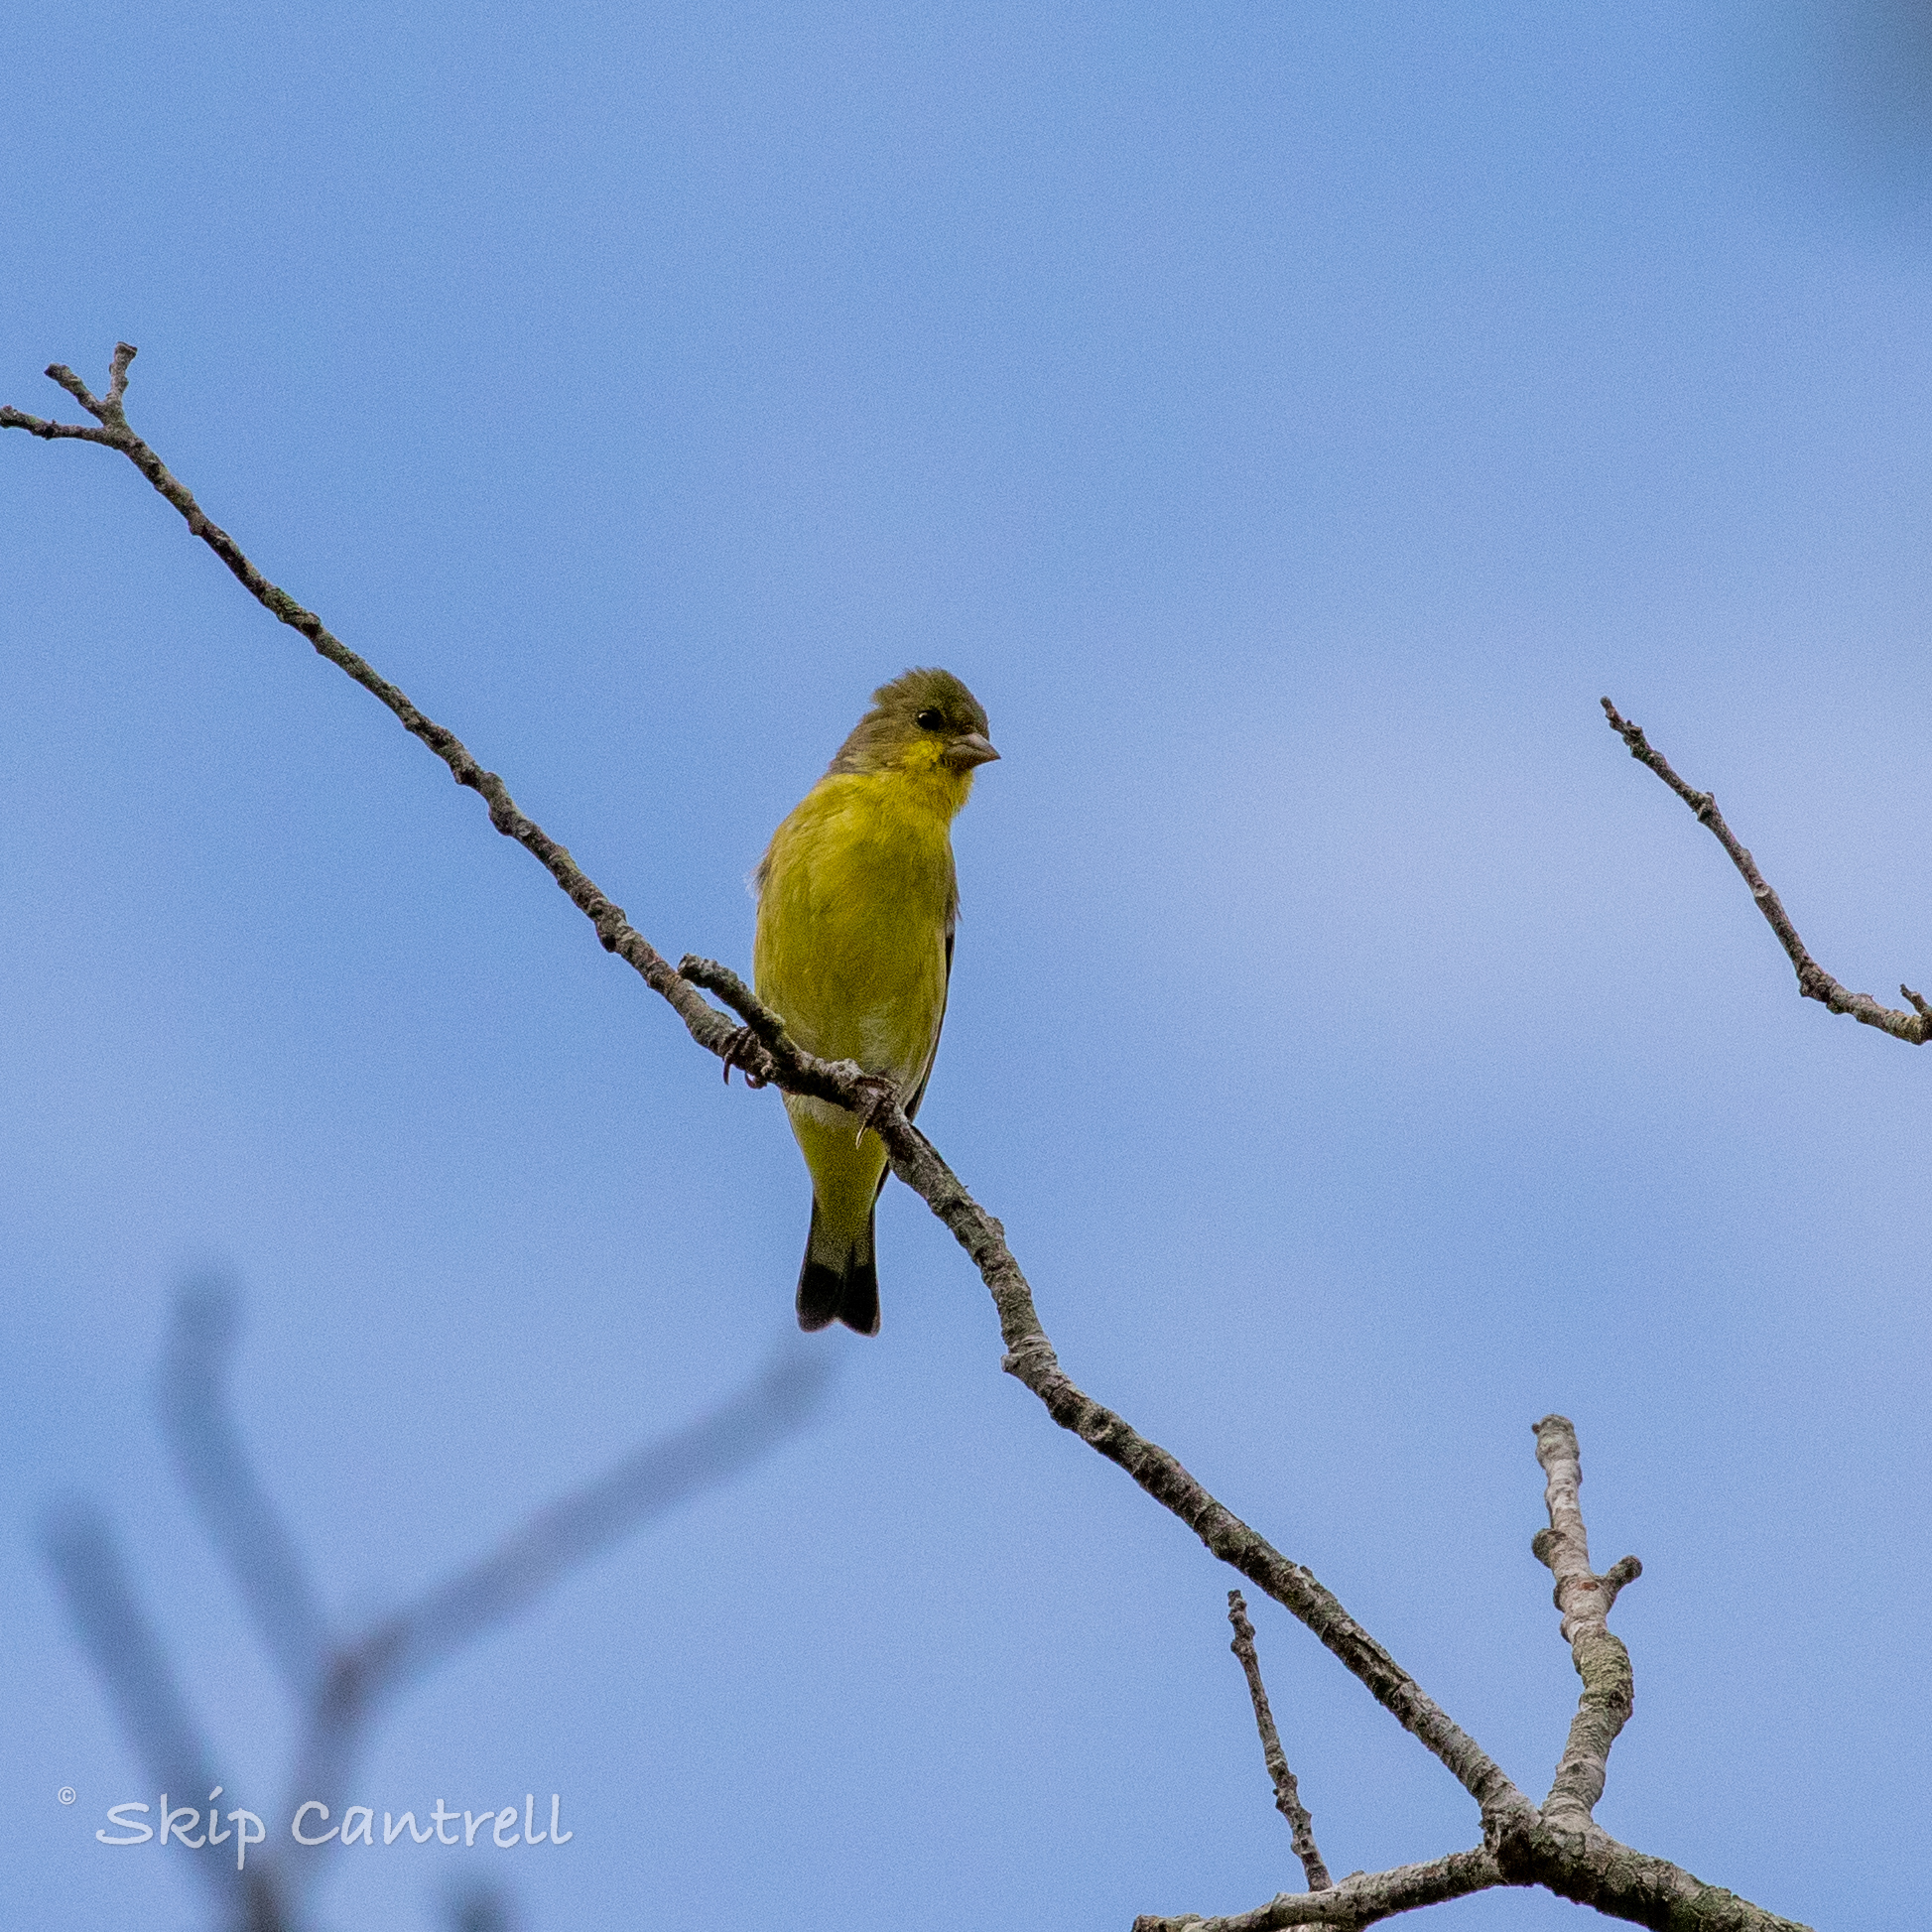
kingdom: Animalia
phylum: Chordata
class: Aves
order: Passeriformes
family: Fringillidae
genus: Spinus
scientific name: Spinus psaltria
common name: Lesser goldfinch
